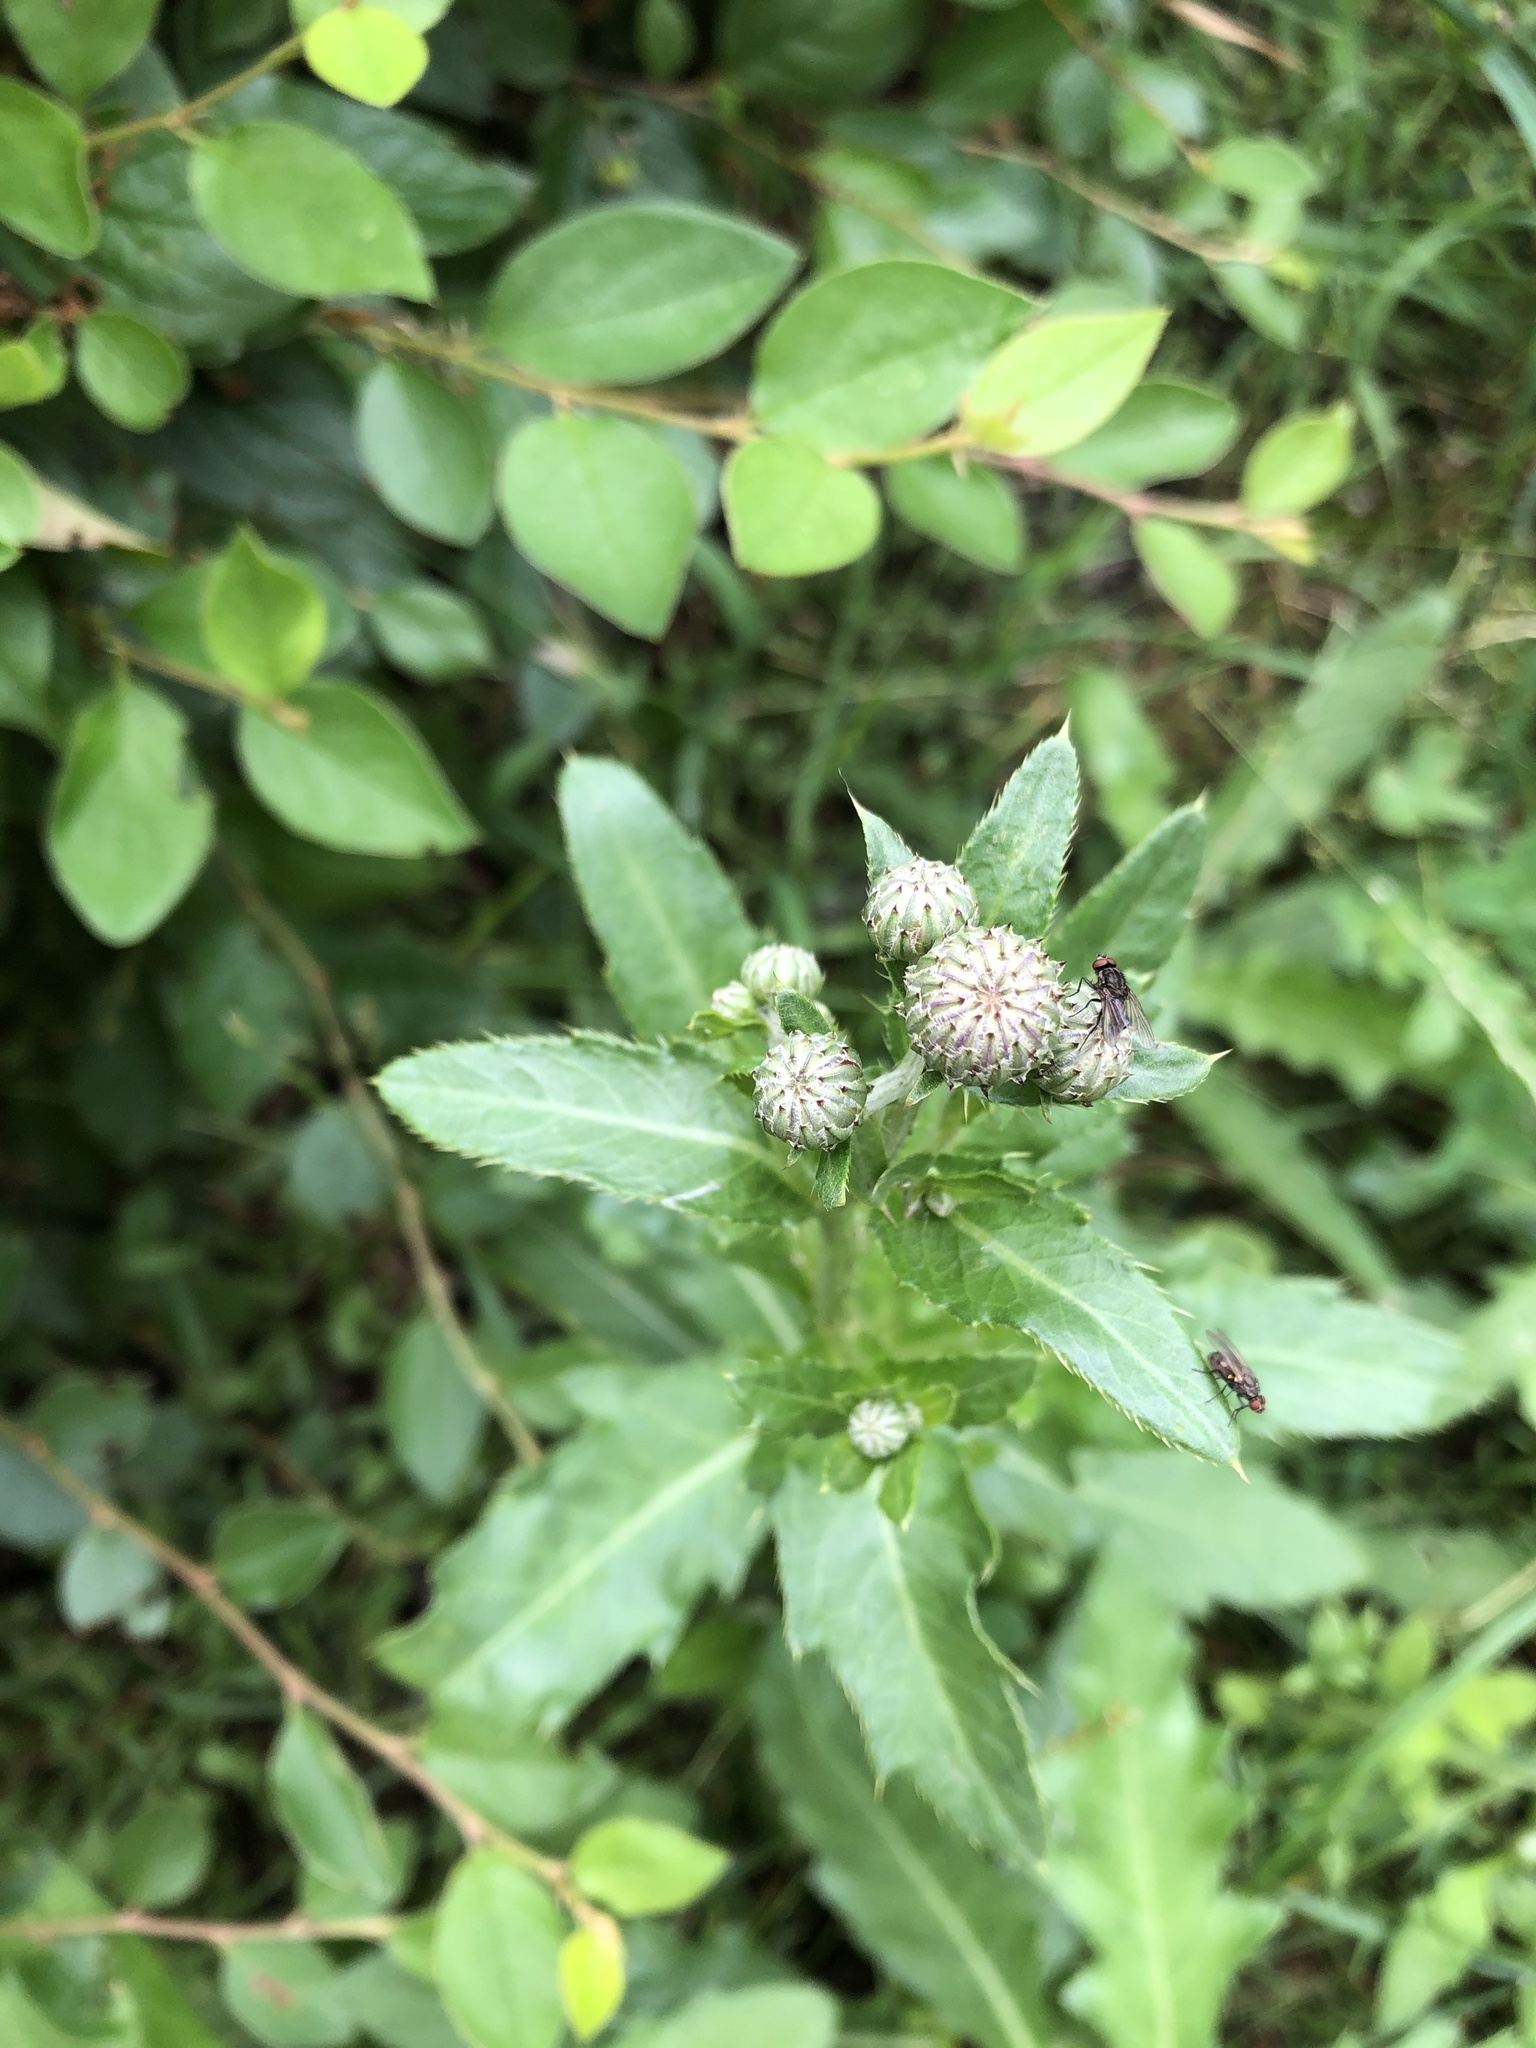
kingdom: Plantae
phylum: Tracheophyta
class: Magnoliopsida
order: Asterales
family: Asteraceae
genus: Cirsium
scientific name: Cirsium arvense
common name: Creeping thistle
